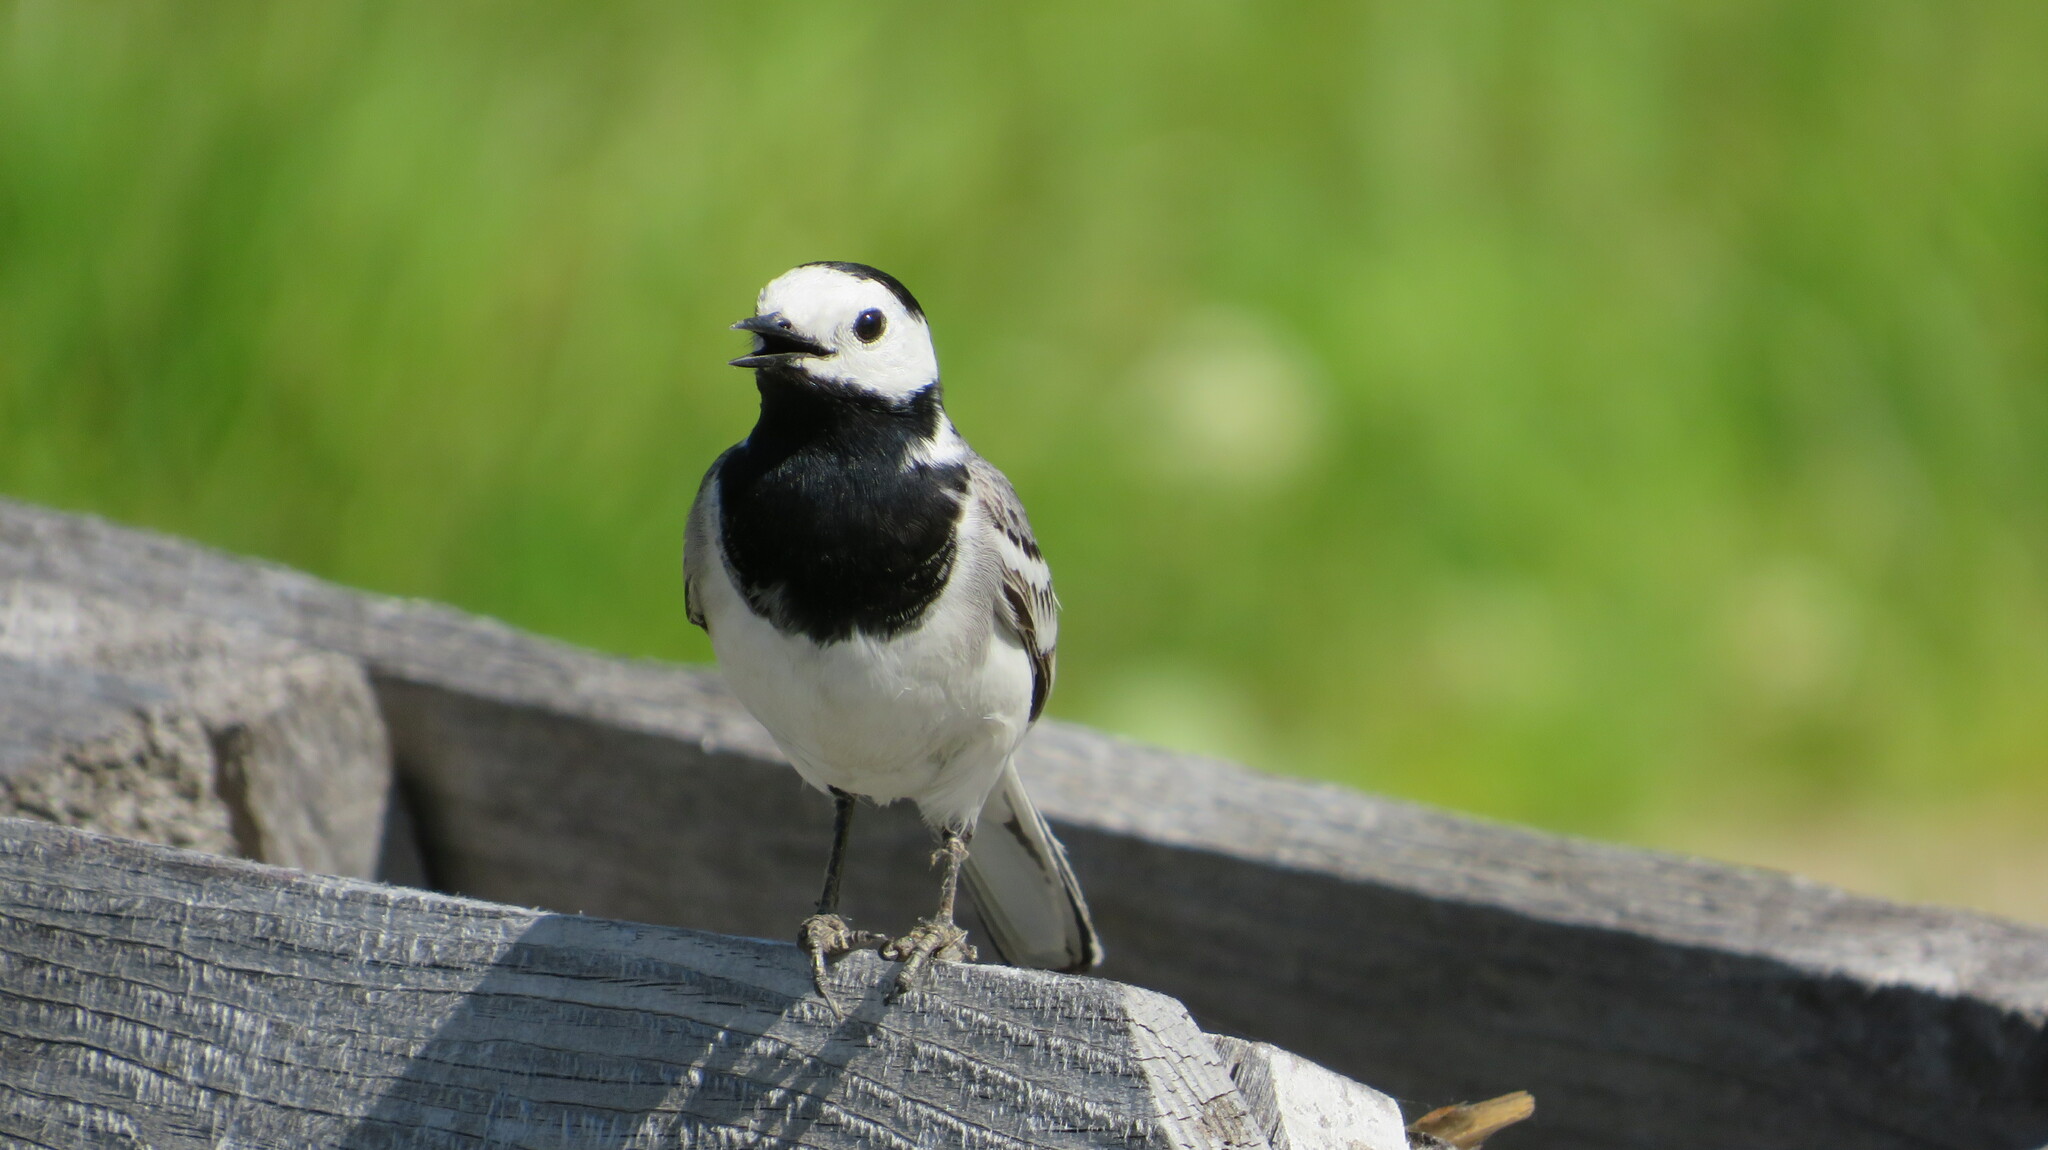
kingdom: Animalia
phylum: Chordata
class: Aves
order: Passeriformes
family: Motacillidae
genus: Motacilla
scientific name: Motacilla alba
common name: White wagtail
